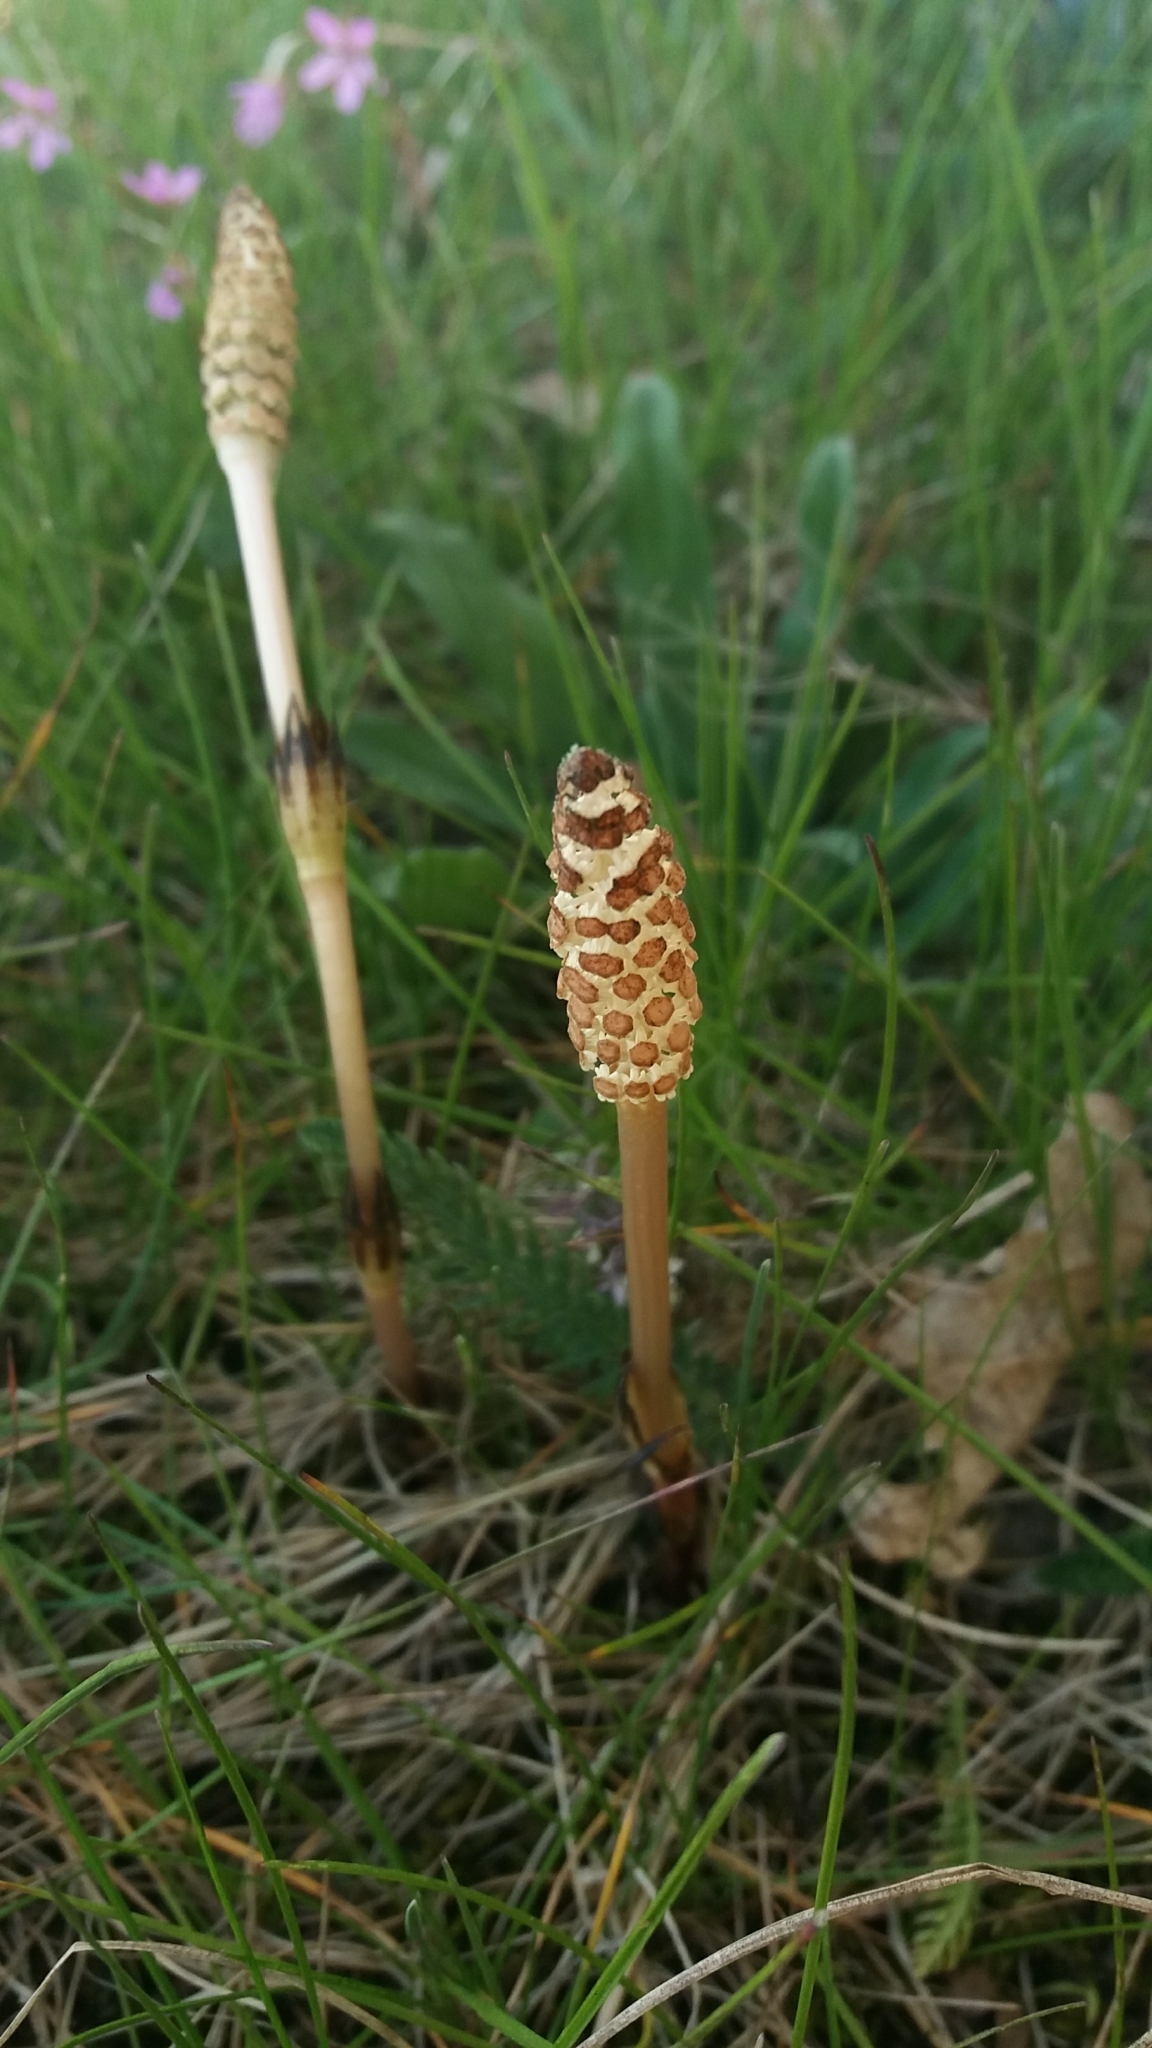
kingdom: Plantae
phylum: Tracheophyta
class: Polypodiopsida
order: Equisetales
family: Equisetaceae
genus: Equisetum
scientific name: Equisetum arvense
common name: Field horsetail
